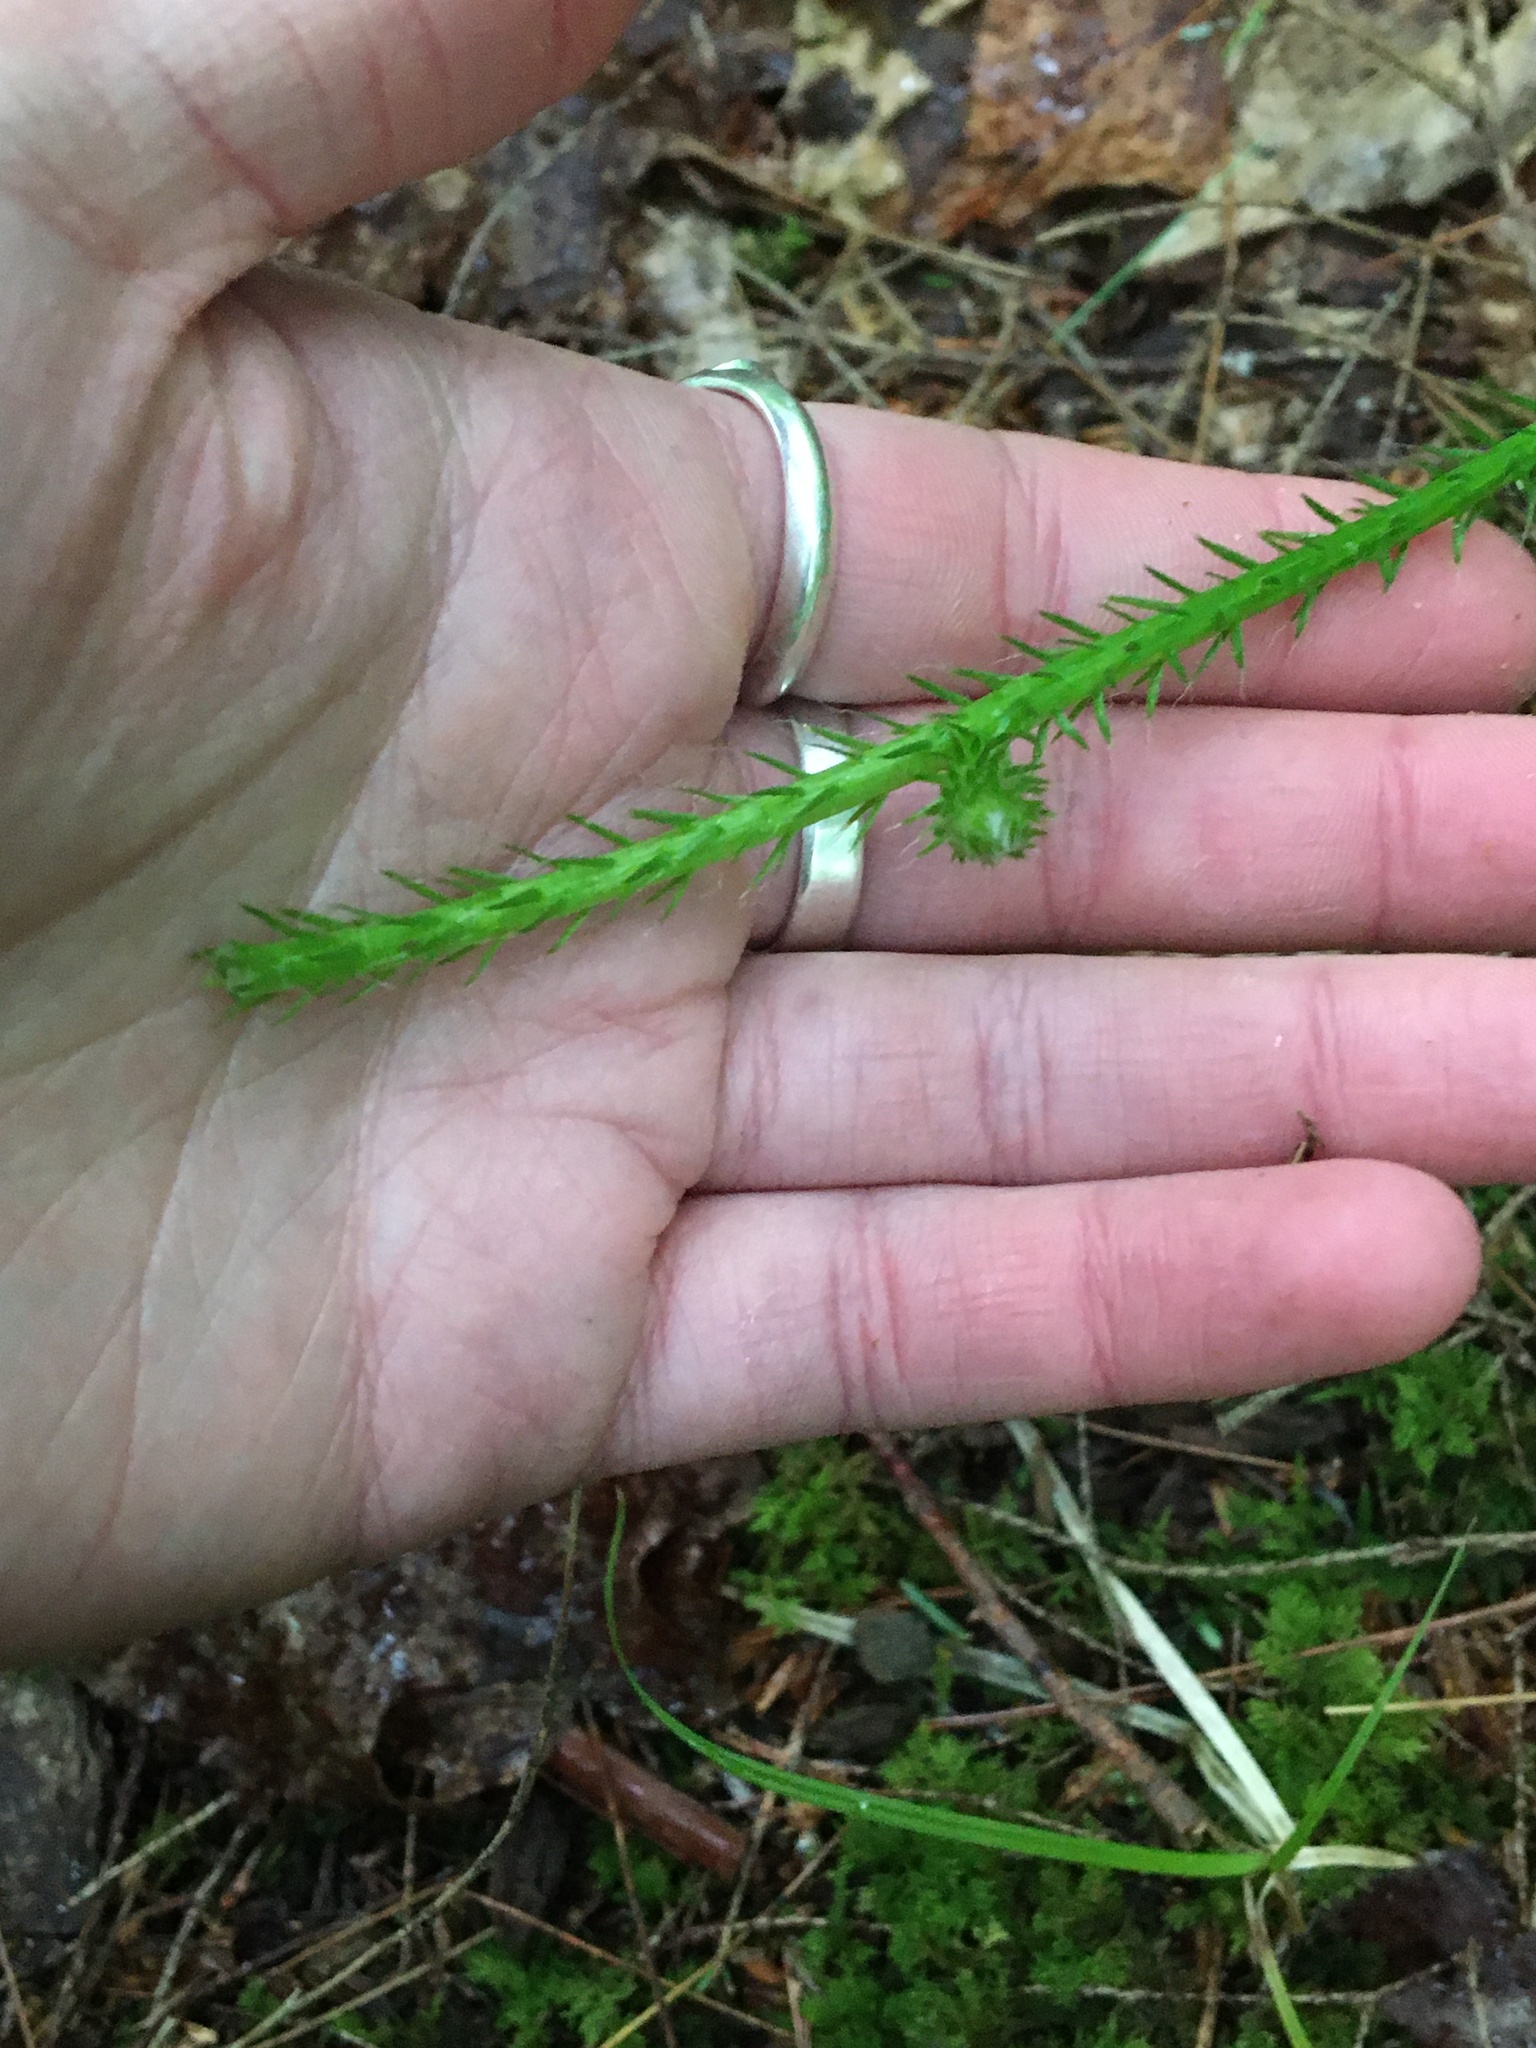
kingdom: Plantae
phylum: Tracheophyta
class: Lycopodiopsida
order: Lycopodiales
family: Lycopodiaceae
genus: Lycopodium
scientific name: Lycopodium clavatum
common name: Stag's-horn clubmoss
